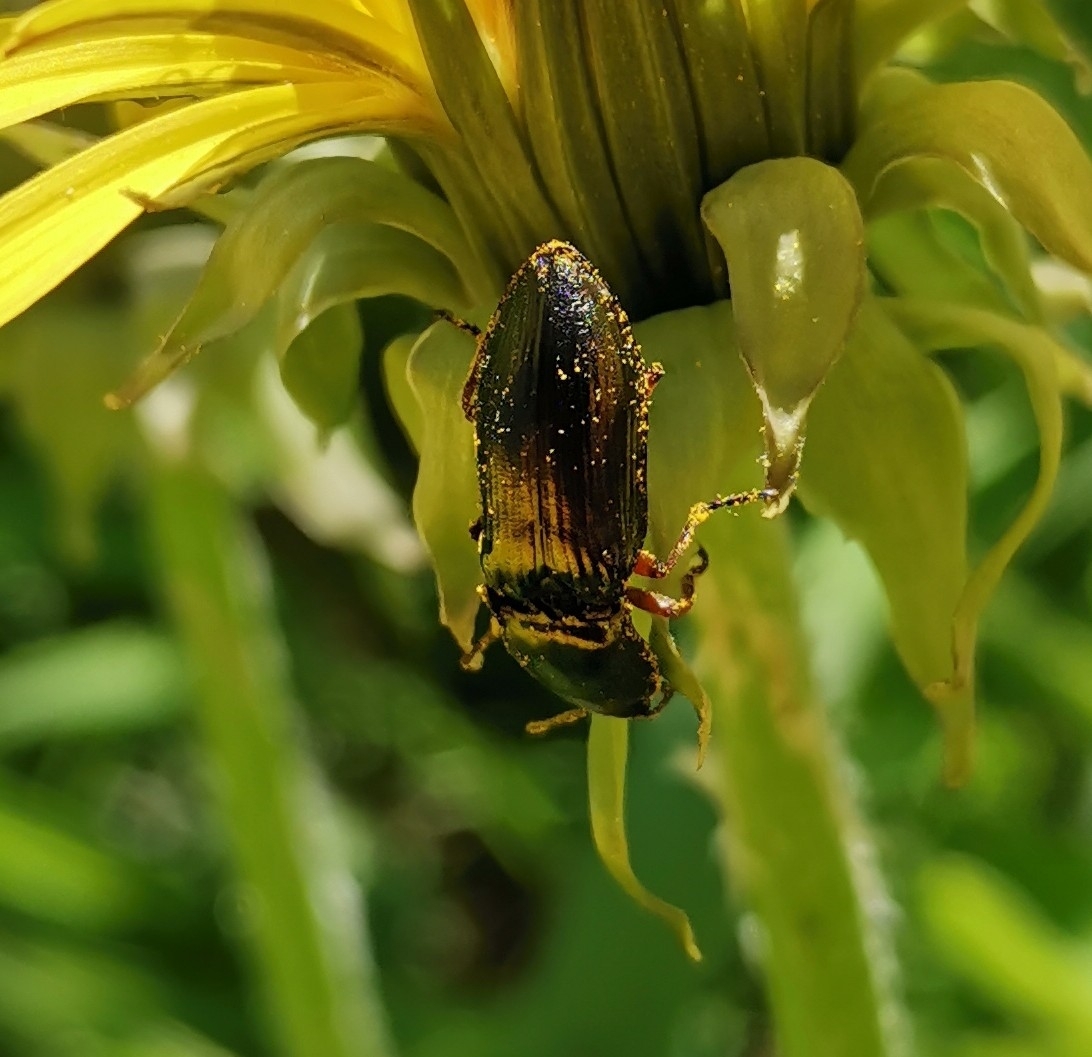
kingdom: Animalia
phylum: Arthropoda
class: Insecta
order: Coleoptera
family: Elateridae
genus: Selatosomus
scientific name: Selatosomus aeneus
